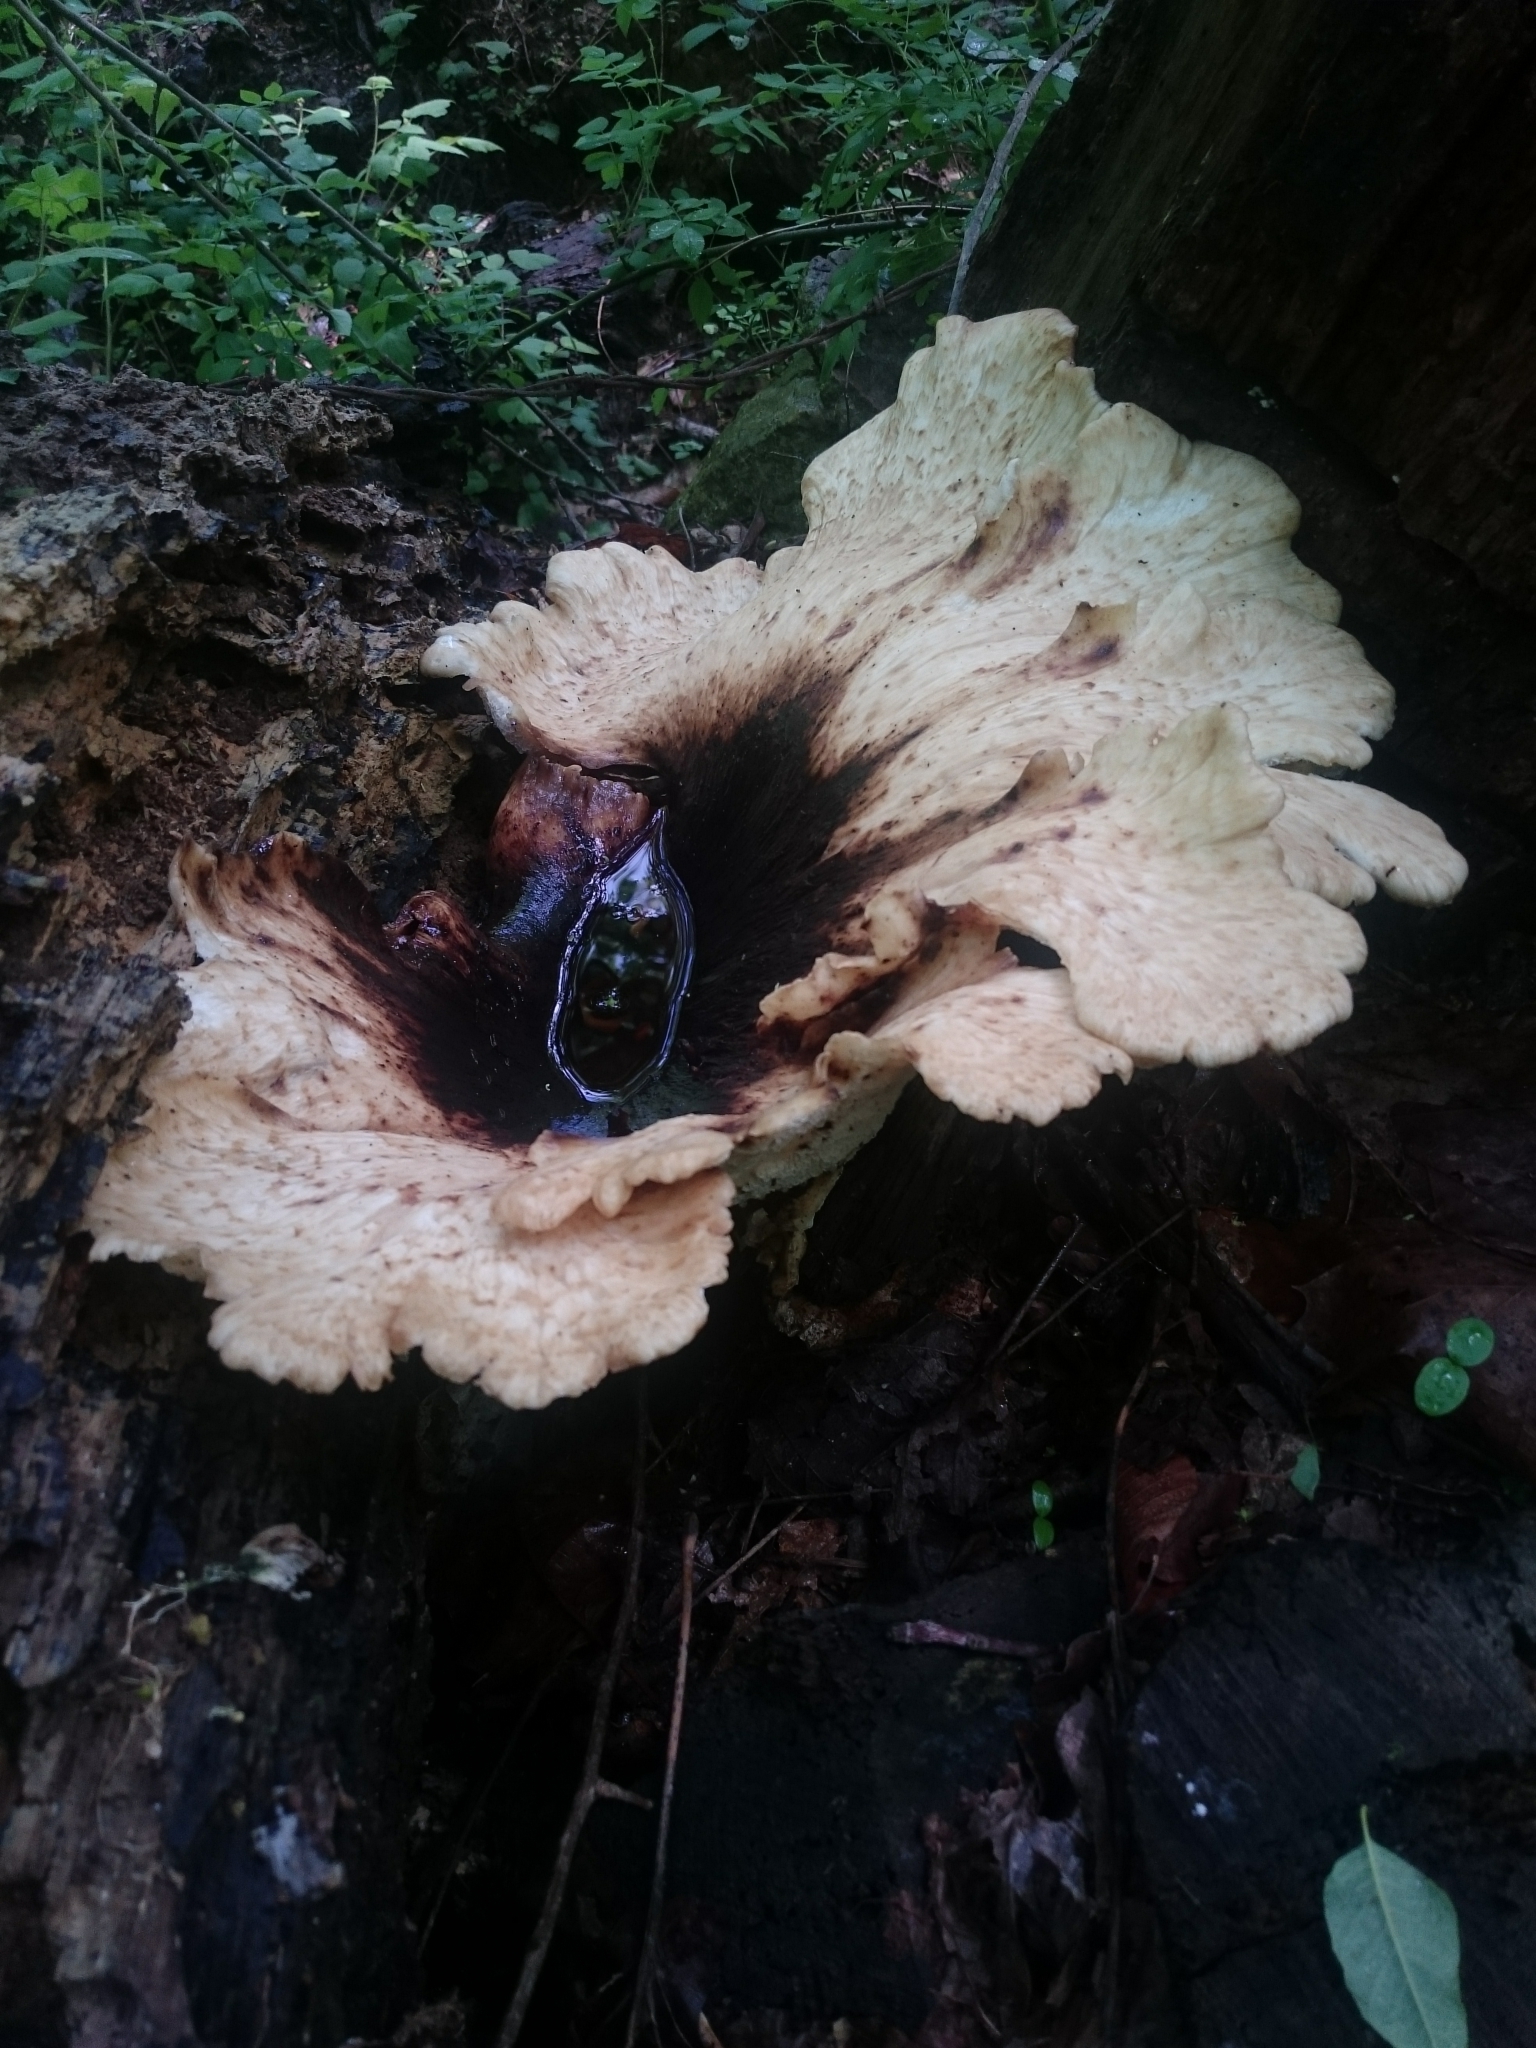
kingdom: Fungi
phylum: Basidiomycota
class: Agaricomycetes
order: Polyporales
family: Polyporaceae
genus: Cerioporus
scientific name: Cerioporus squamosus
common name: Dryad's saddle
